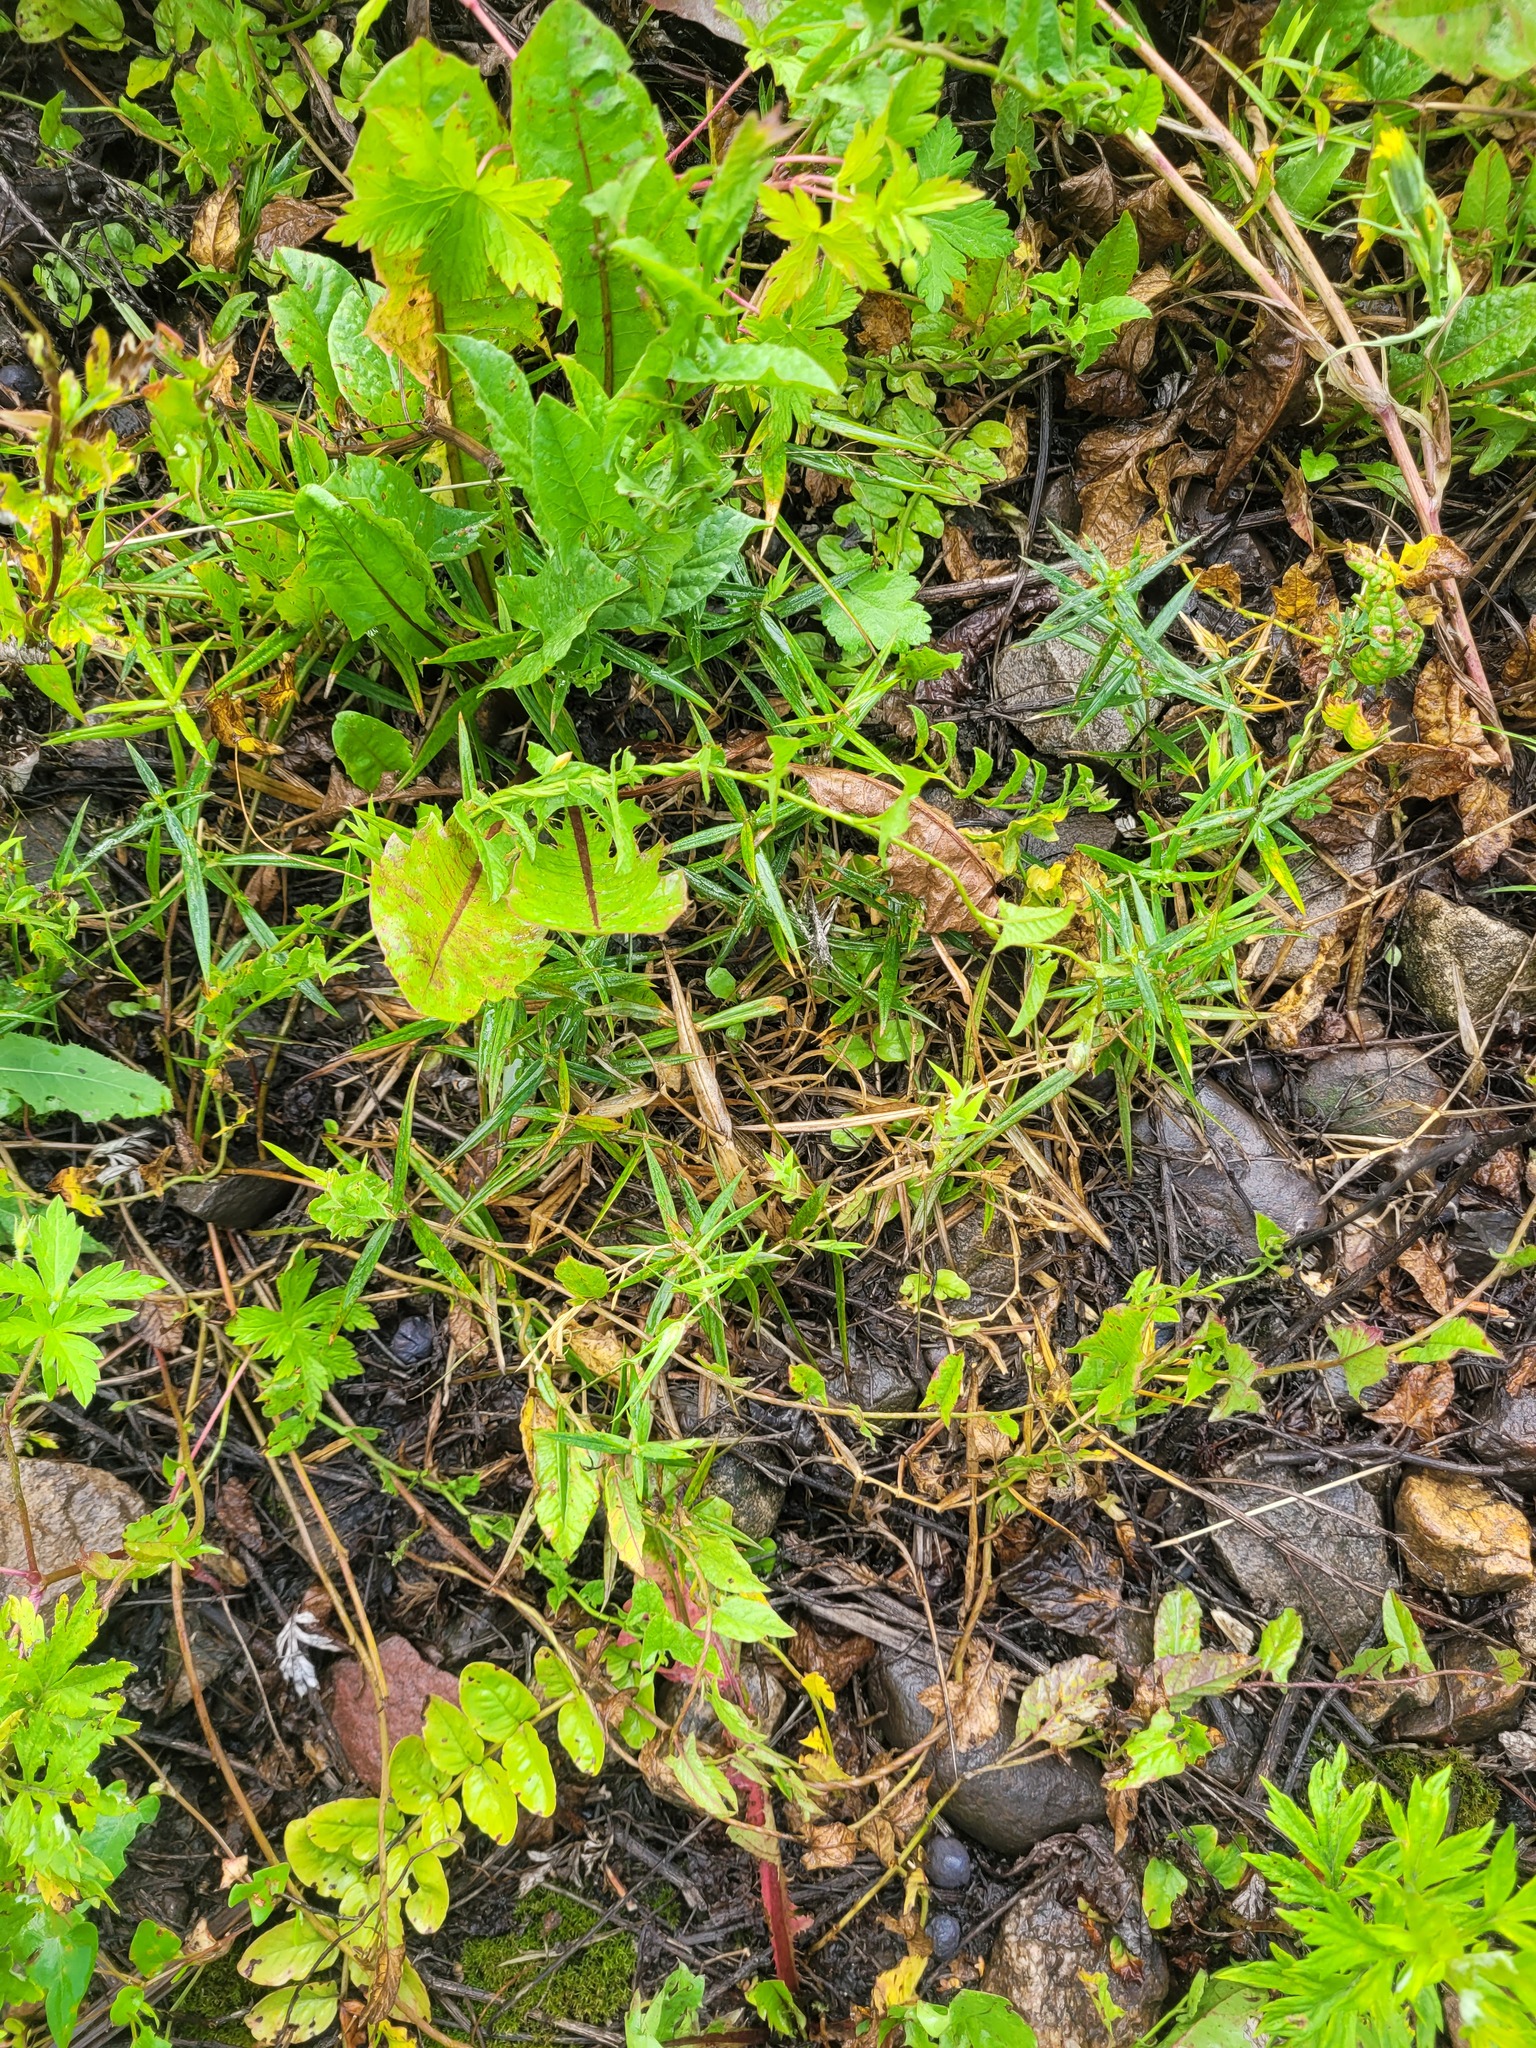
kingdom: Plantae
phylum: Tracheophyta
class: Magnoliopsida
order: Caryophyllales
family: Caryophyllaceae
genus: Rabelera
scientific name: Rabelera holostea
